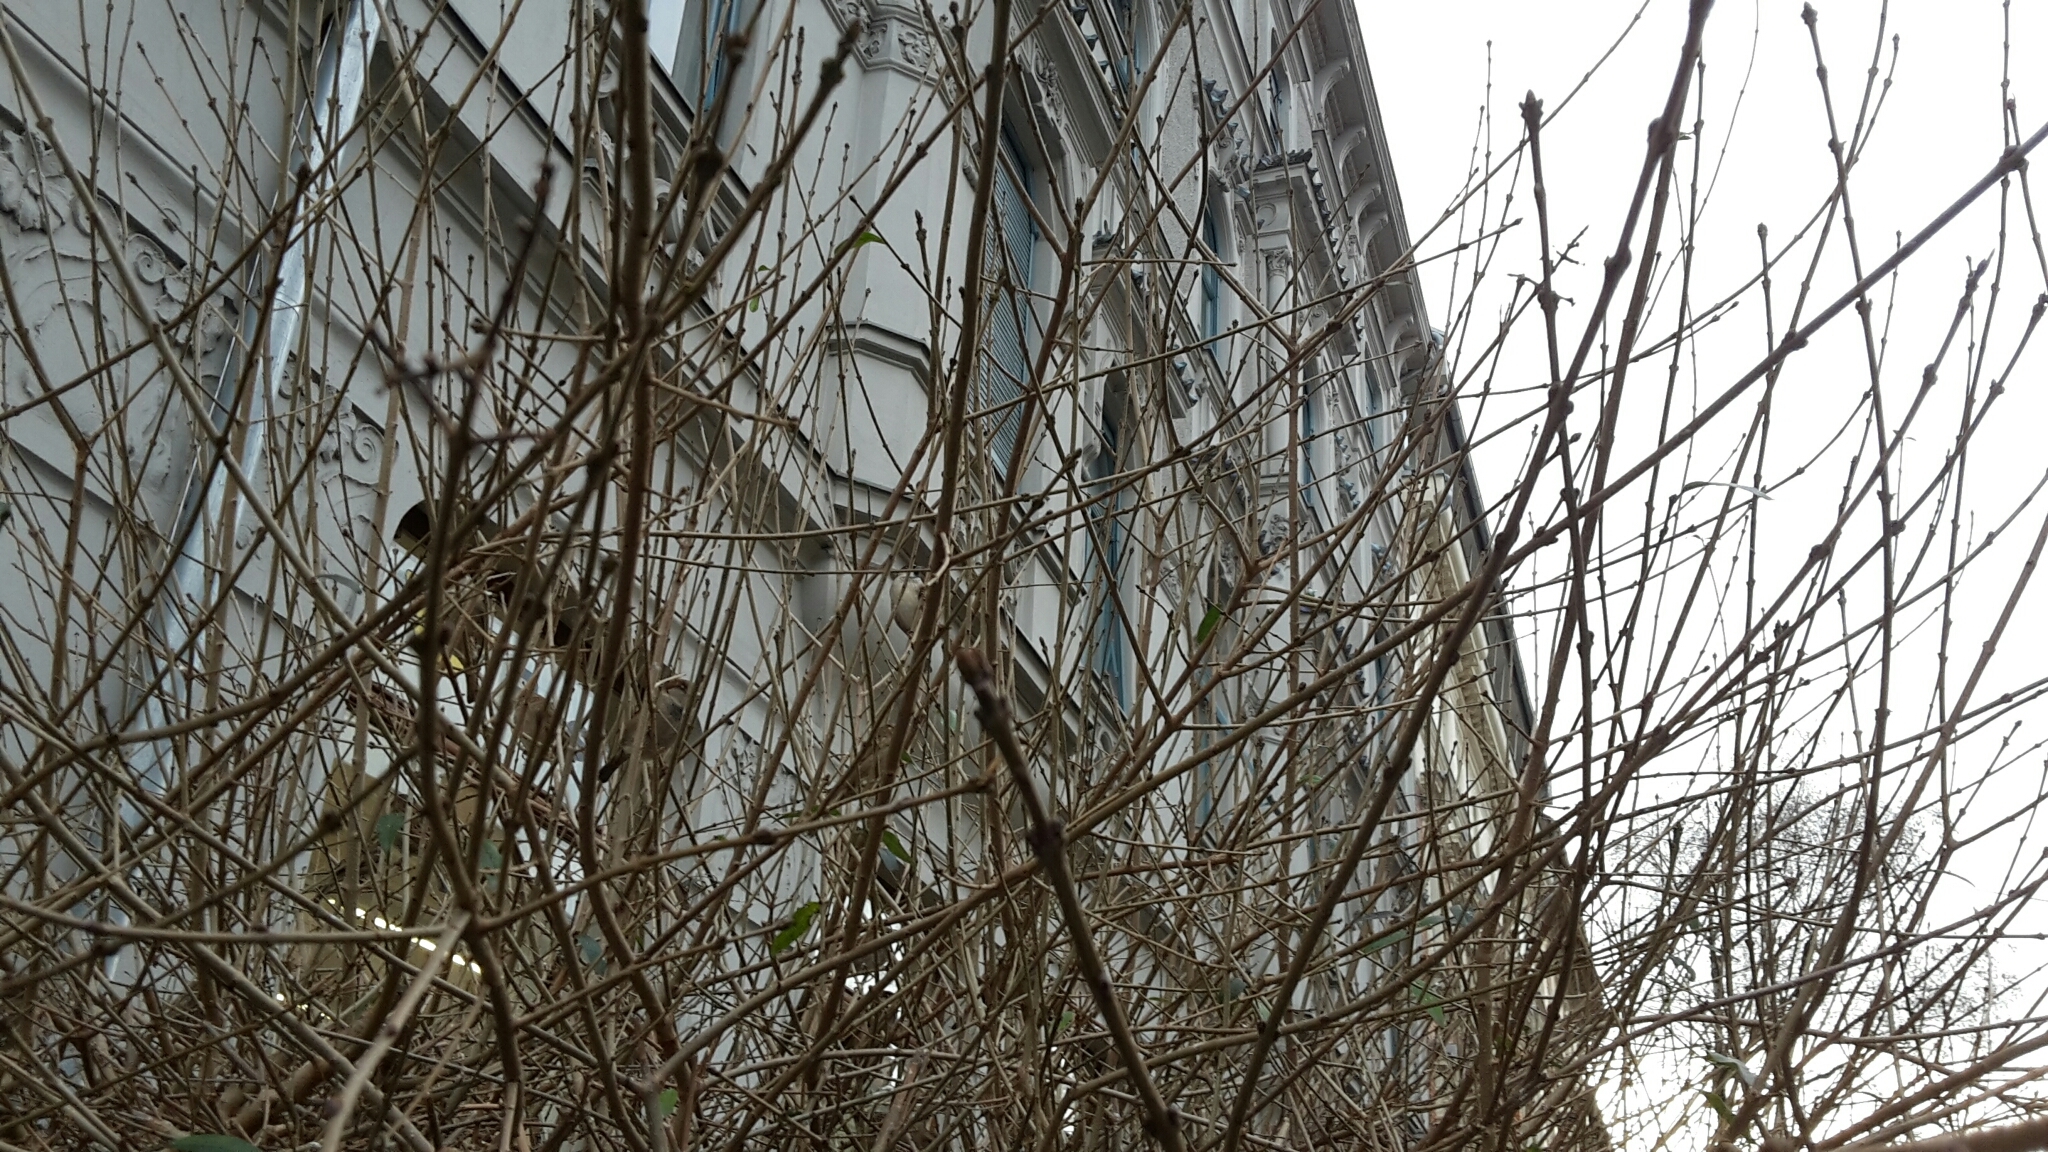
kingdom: Animalia
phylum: Chordata
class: Aves
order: Passeriformes
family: Passeridae
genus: Passer
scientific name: Passer domesticus
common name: House sparrow
